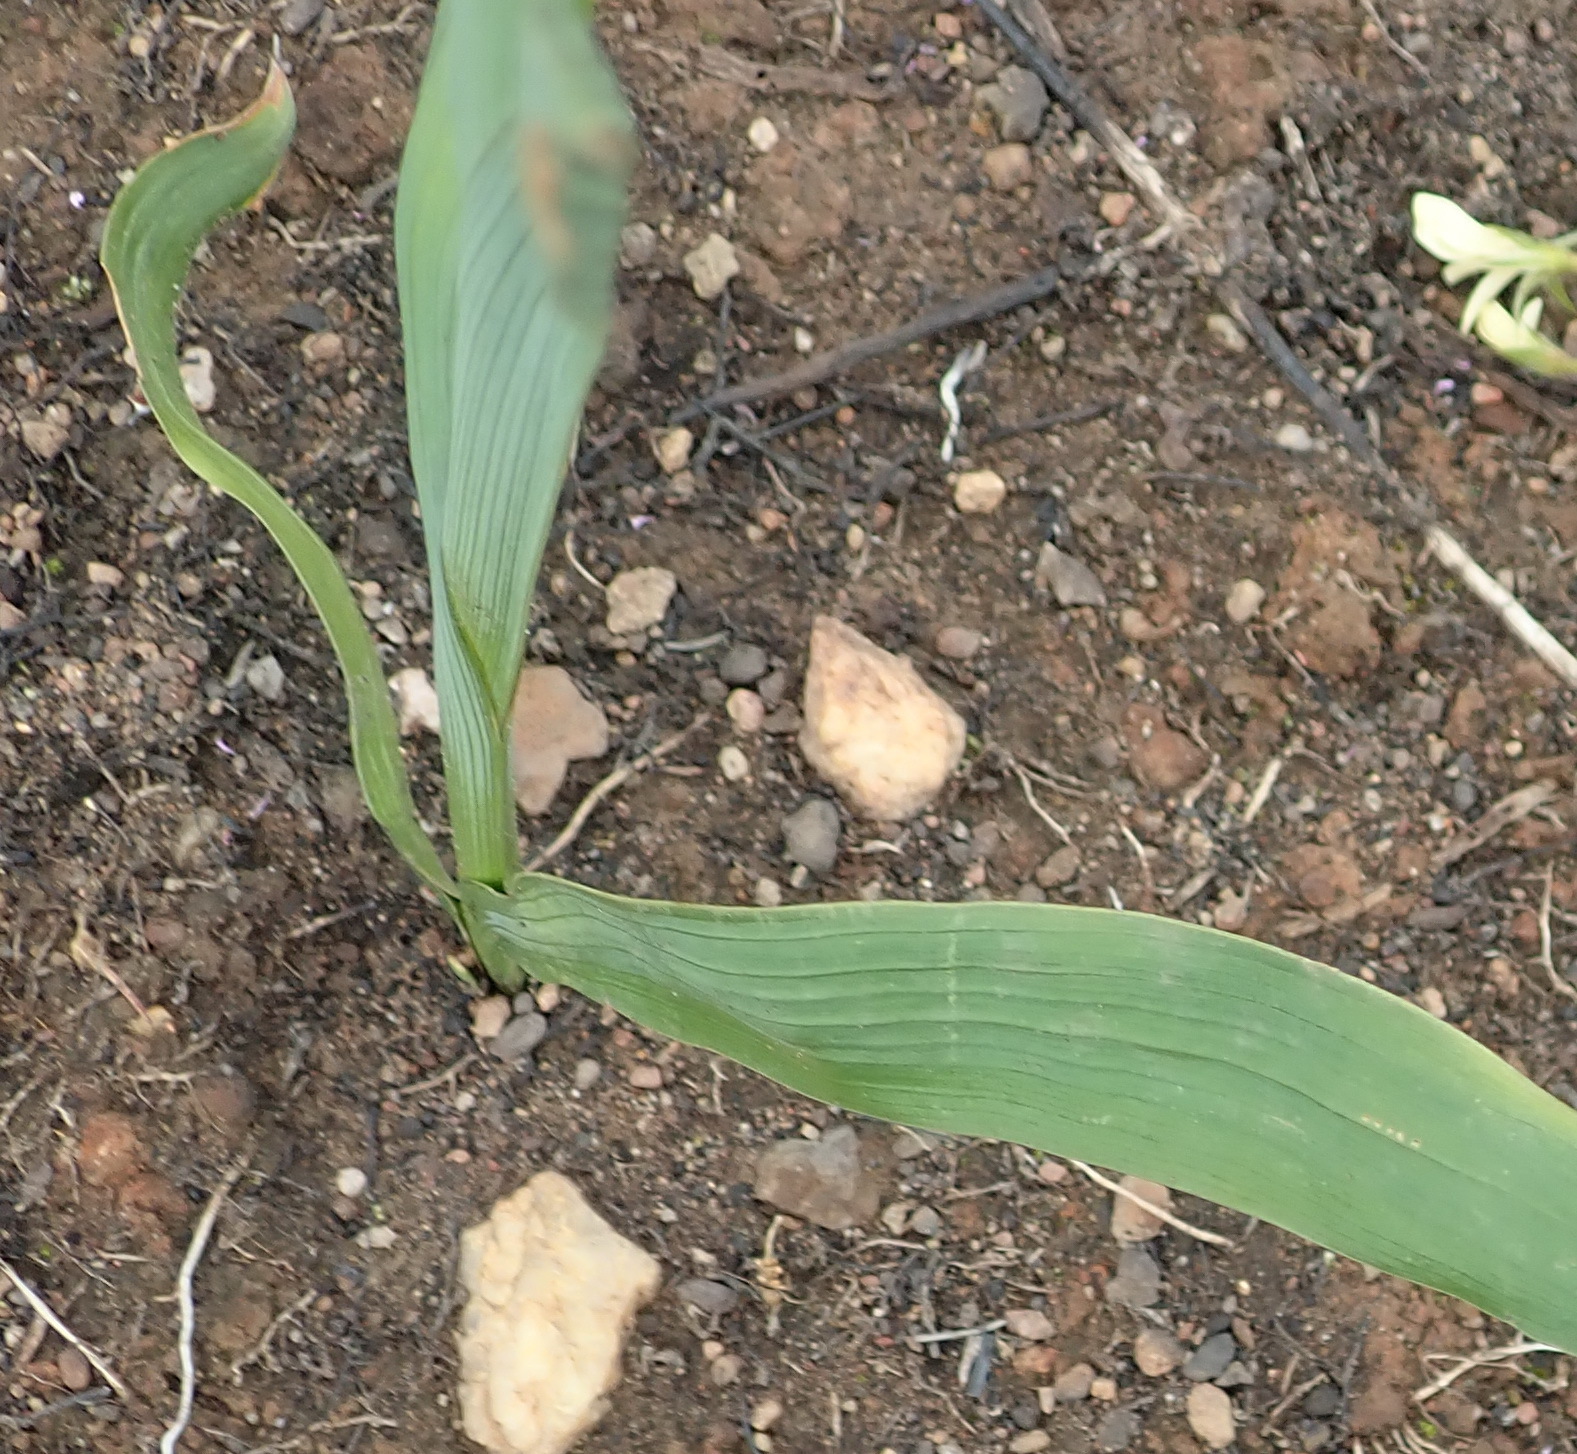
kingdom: Plantae
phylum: Tracheophyta
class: Liliopsida
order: Asparagales
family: Iridaceae
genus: Micranthus
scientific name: Micranthus alopecuroides
